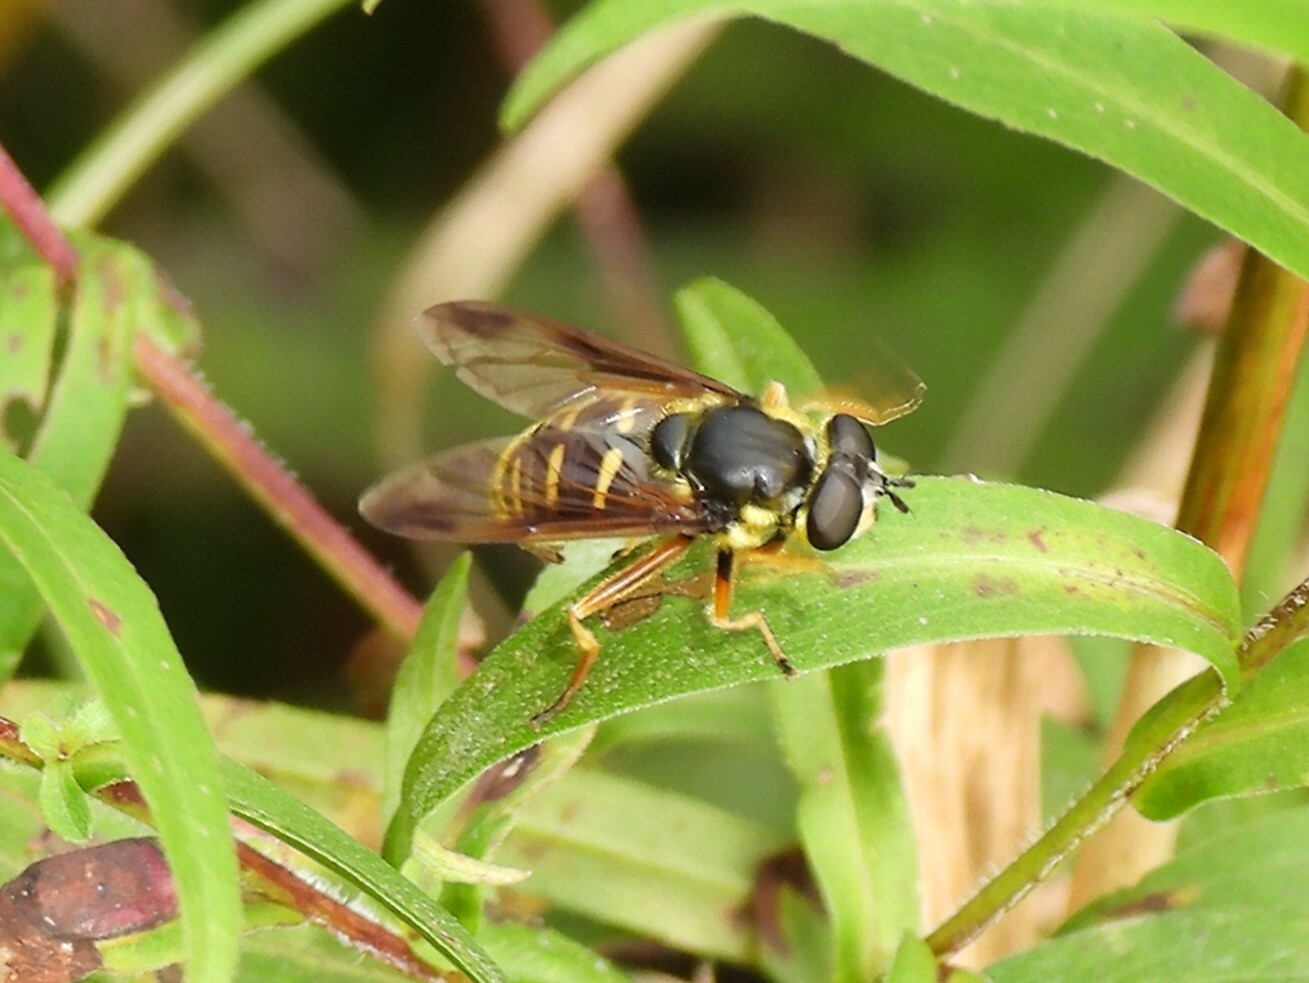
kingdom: Animalia
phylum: Arthropoda
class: Insecta
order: Diptera
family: Syrphidae
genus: Sericomyia
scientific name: Sericomyia chrysotoxoides
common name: Oblique-banded pond fly
